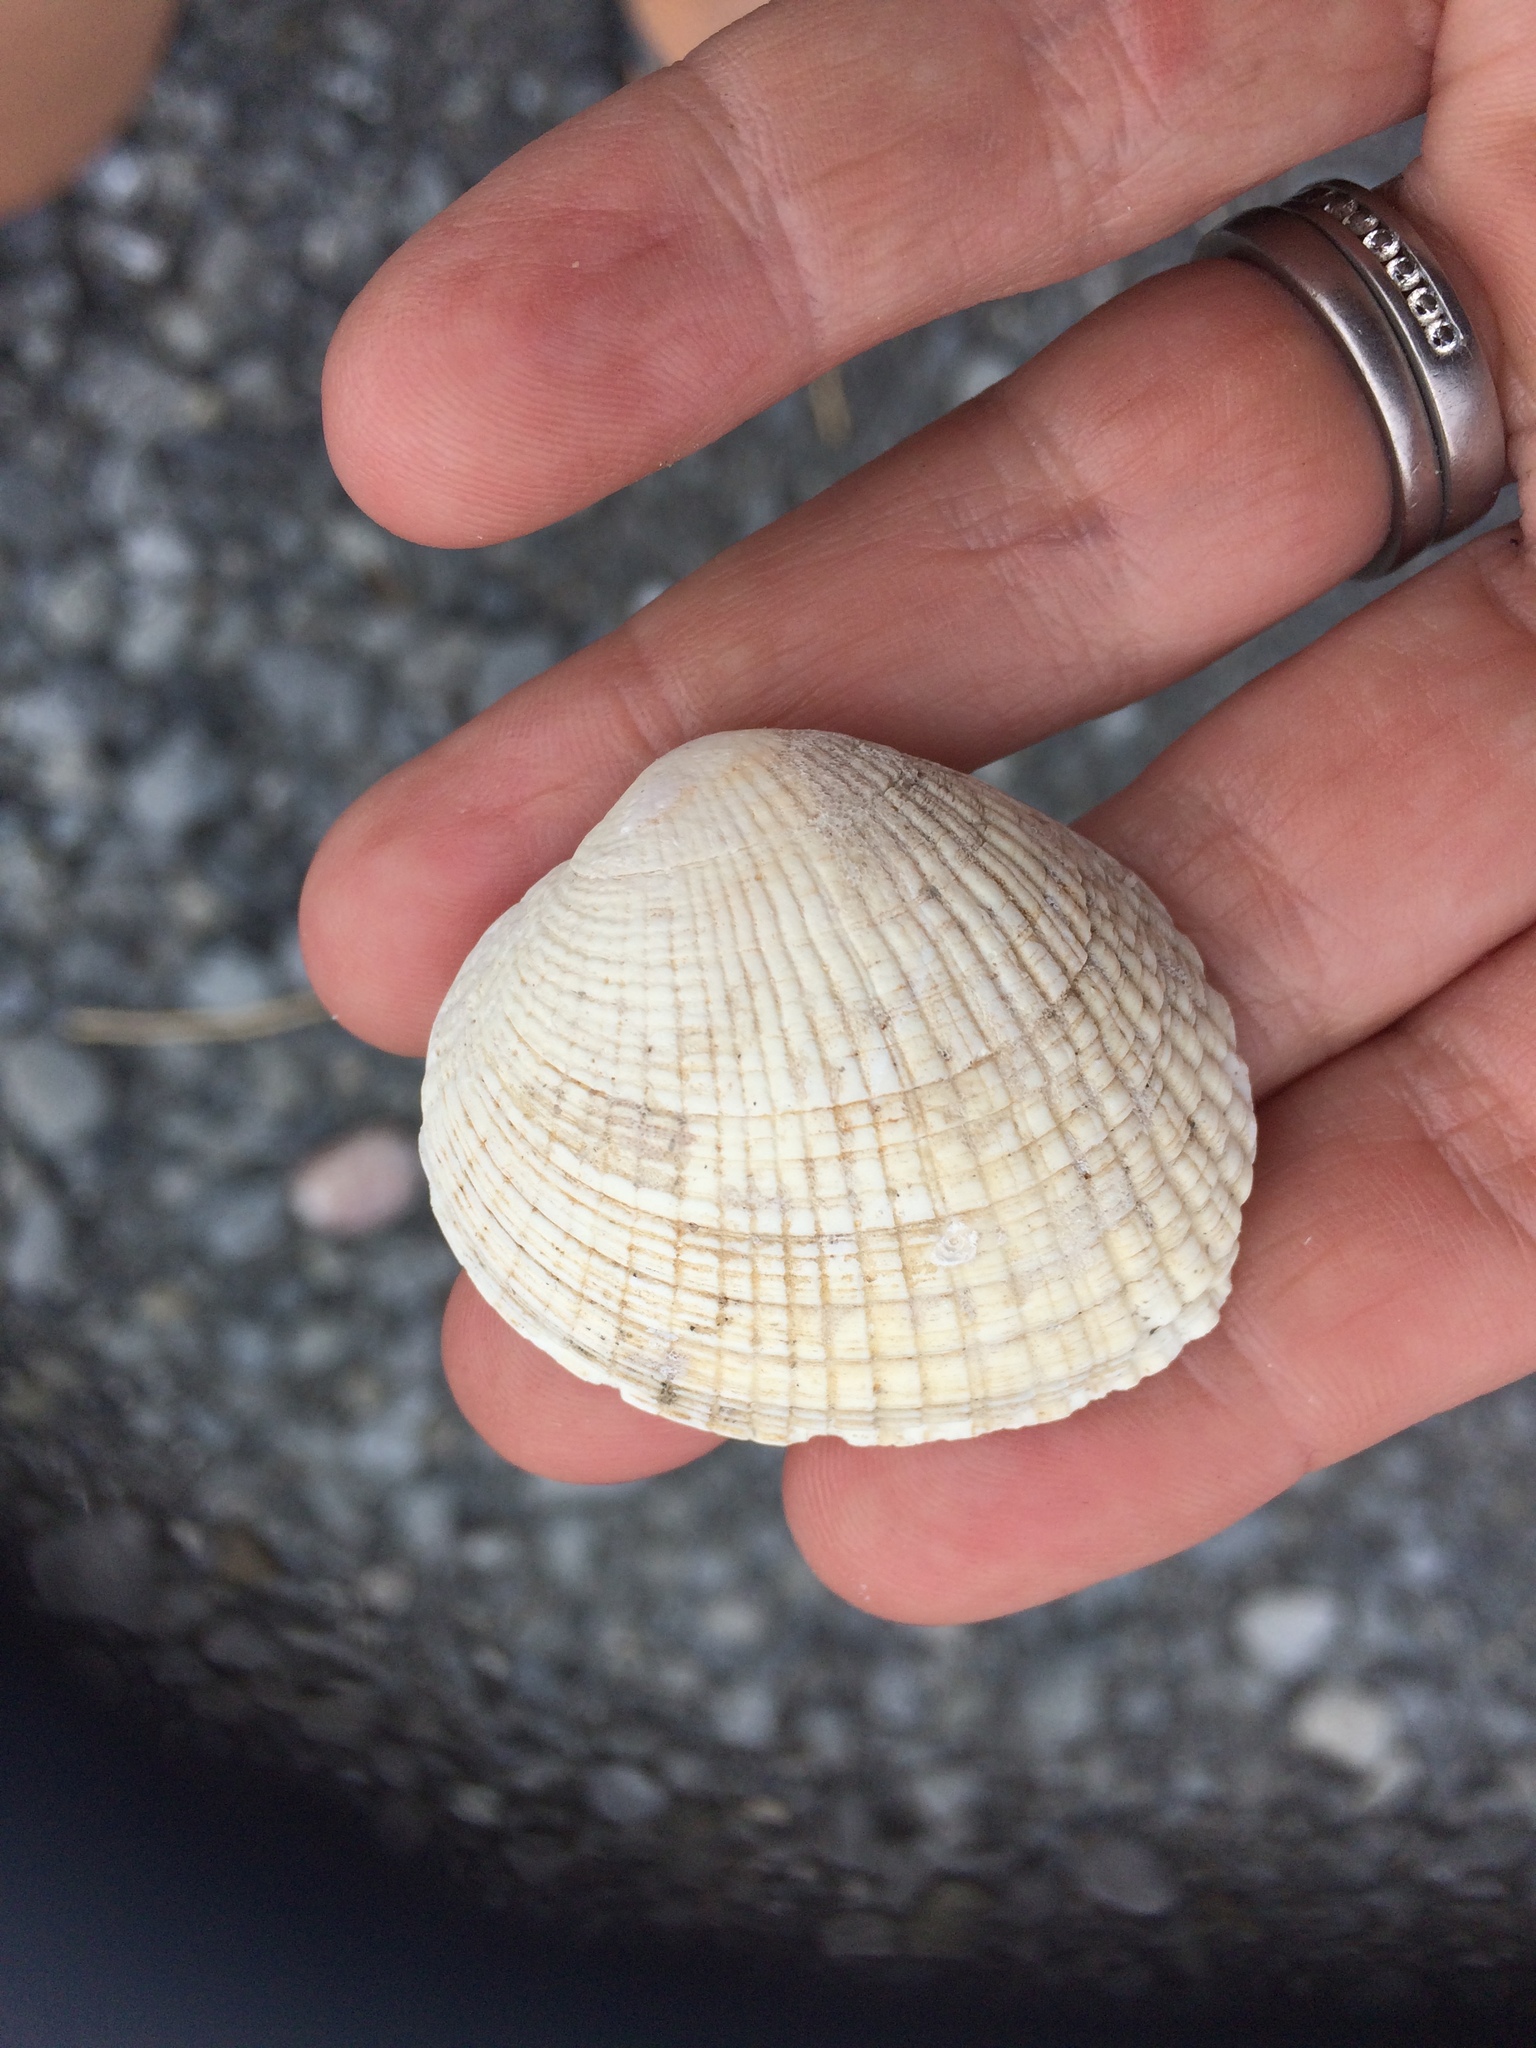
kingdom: Animalia
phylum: Mollusca
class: Bivalvia
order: Venerida
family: Veneridae
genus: Leukoma
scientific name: Leukoma crassicosta
